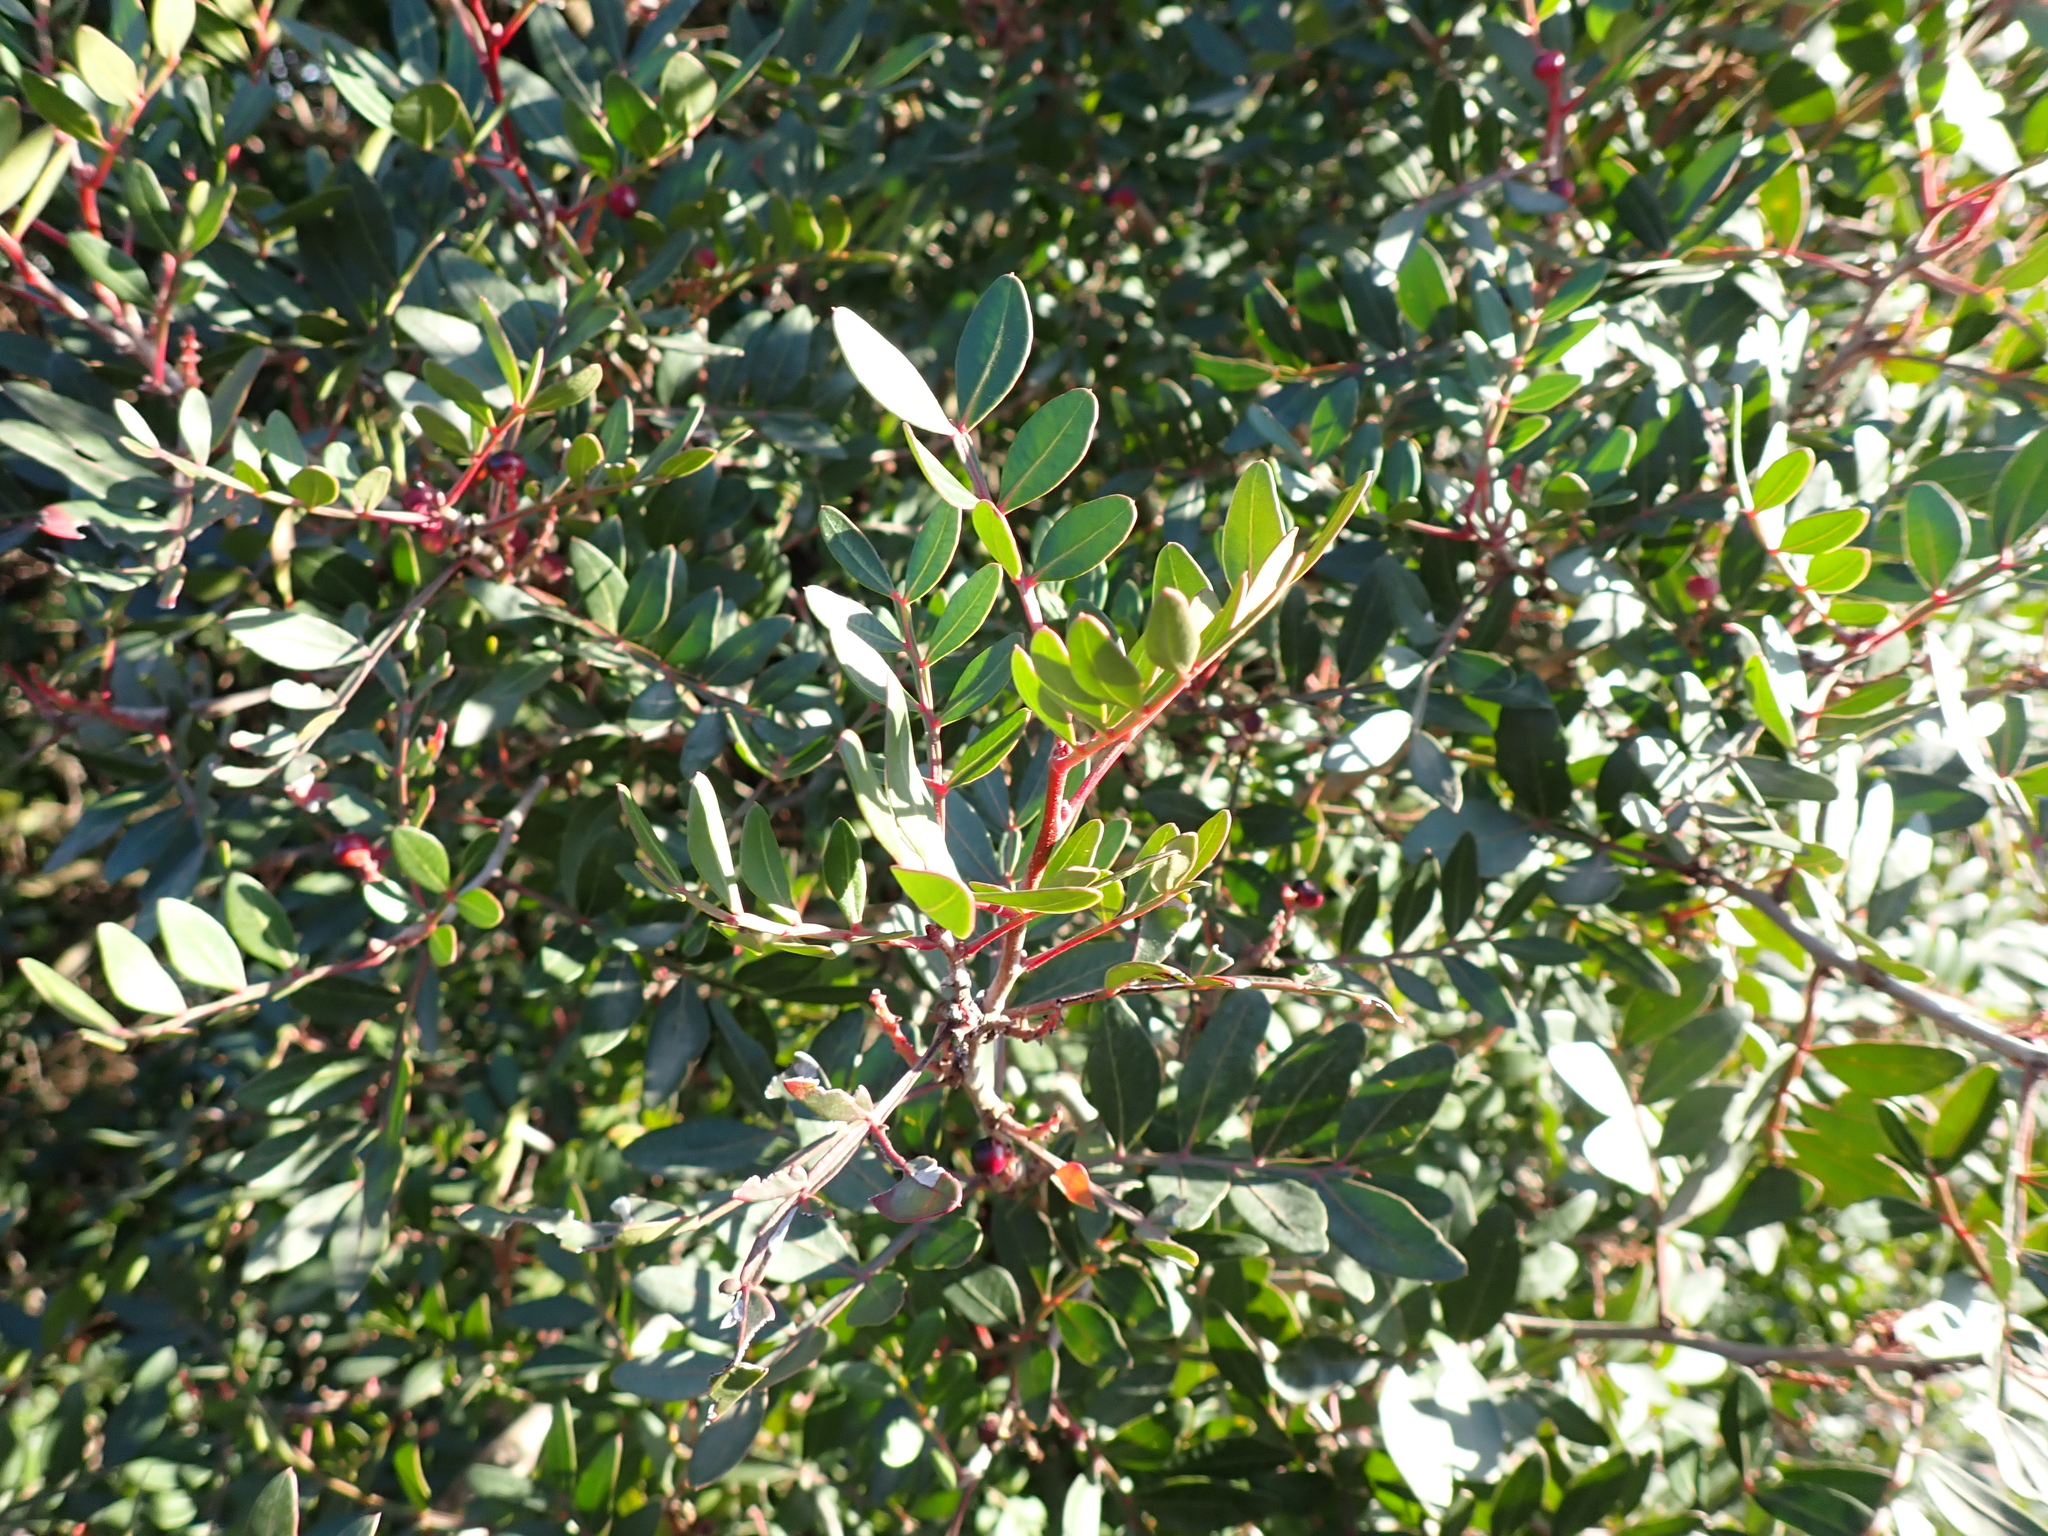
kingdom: Plantae
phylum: Tracheophyta
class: Magnoliopsida
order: Sapindales
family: Anacardiaceae
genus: Pistacia
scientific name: Pistacia lentiscus
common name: Lentisk
